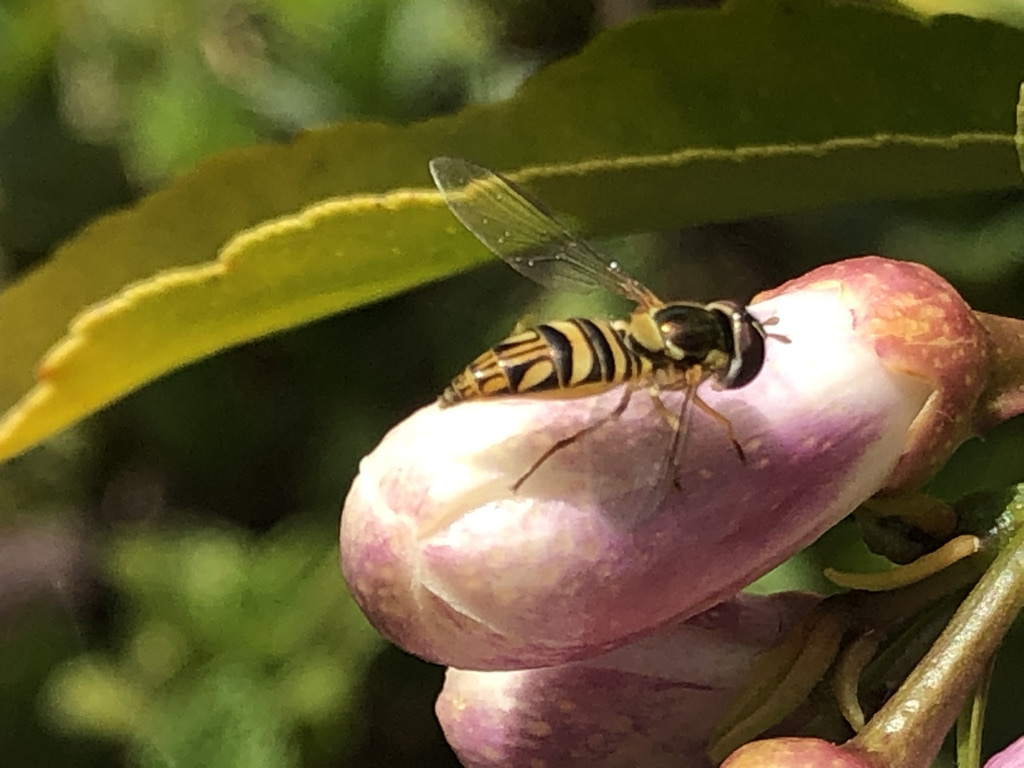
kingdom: Animalia
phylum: Arthropoda
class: Insecta
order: Diptera
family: Syrphidae
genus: Allograpta
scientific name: Allograpta obliqua
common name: Common oblique syrphid
